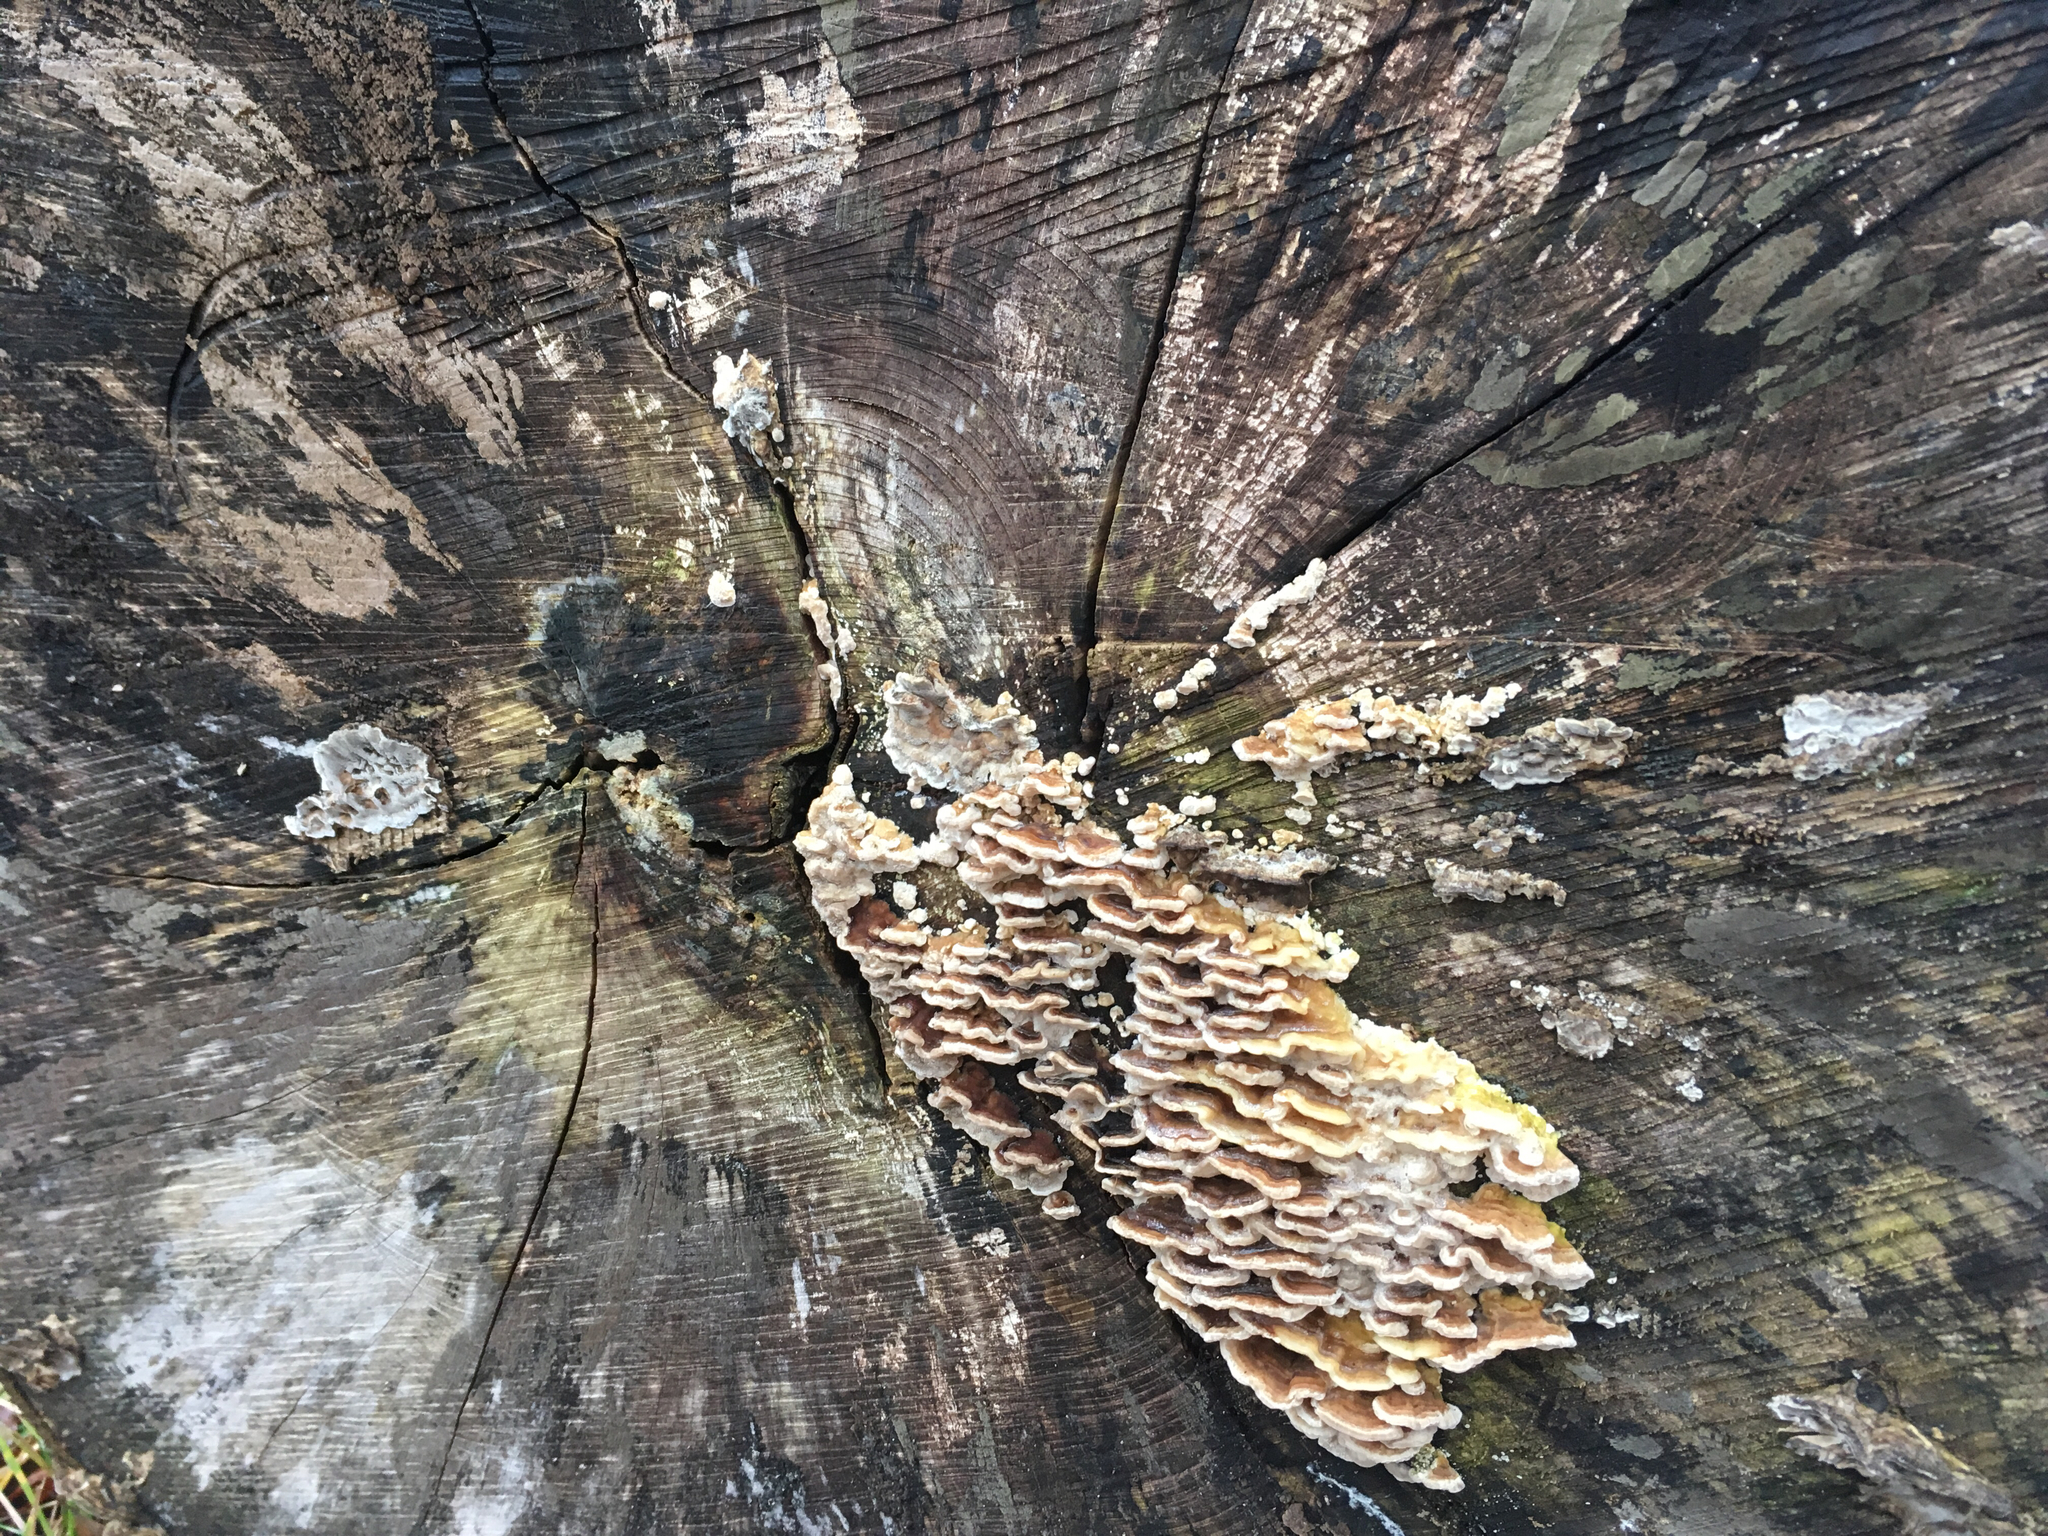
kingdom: Fungi
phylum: Basidiomycota
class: Agaricomycetes
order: Polyporales
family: Polyporaceae
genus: Trametes
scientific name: Trametes ochracea
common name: Ochre bracket
